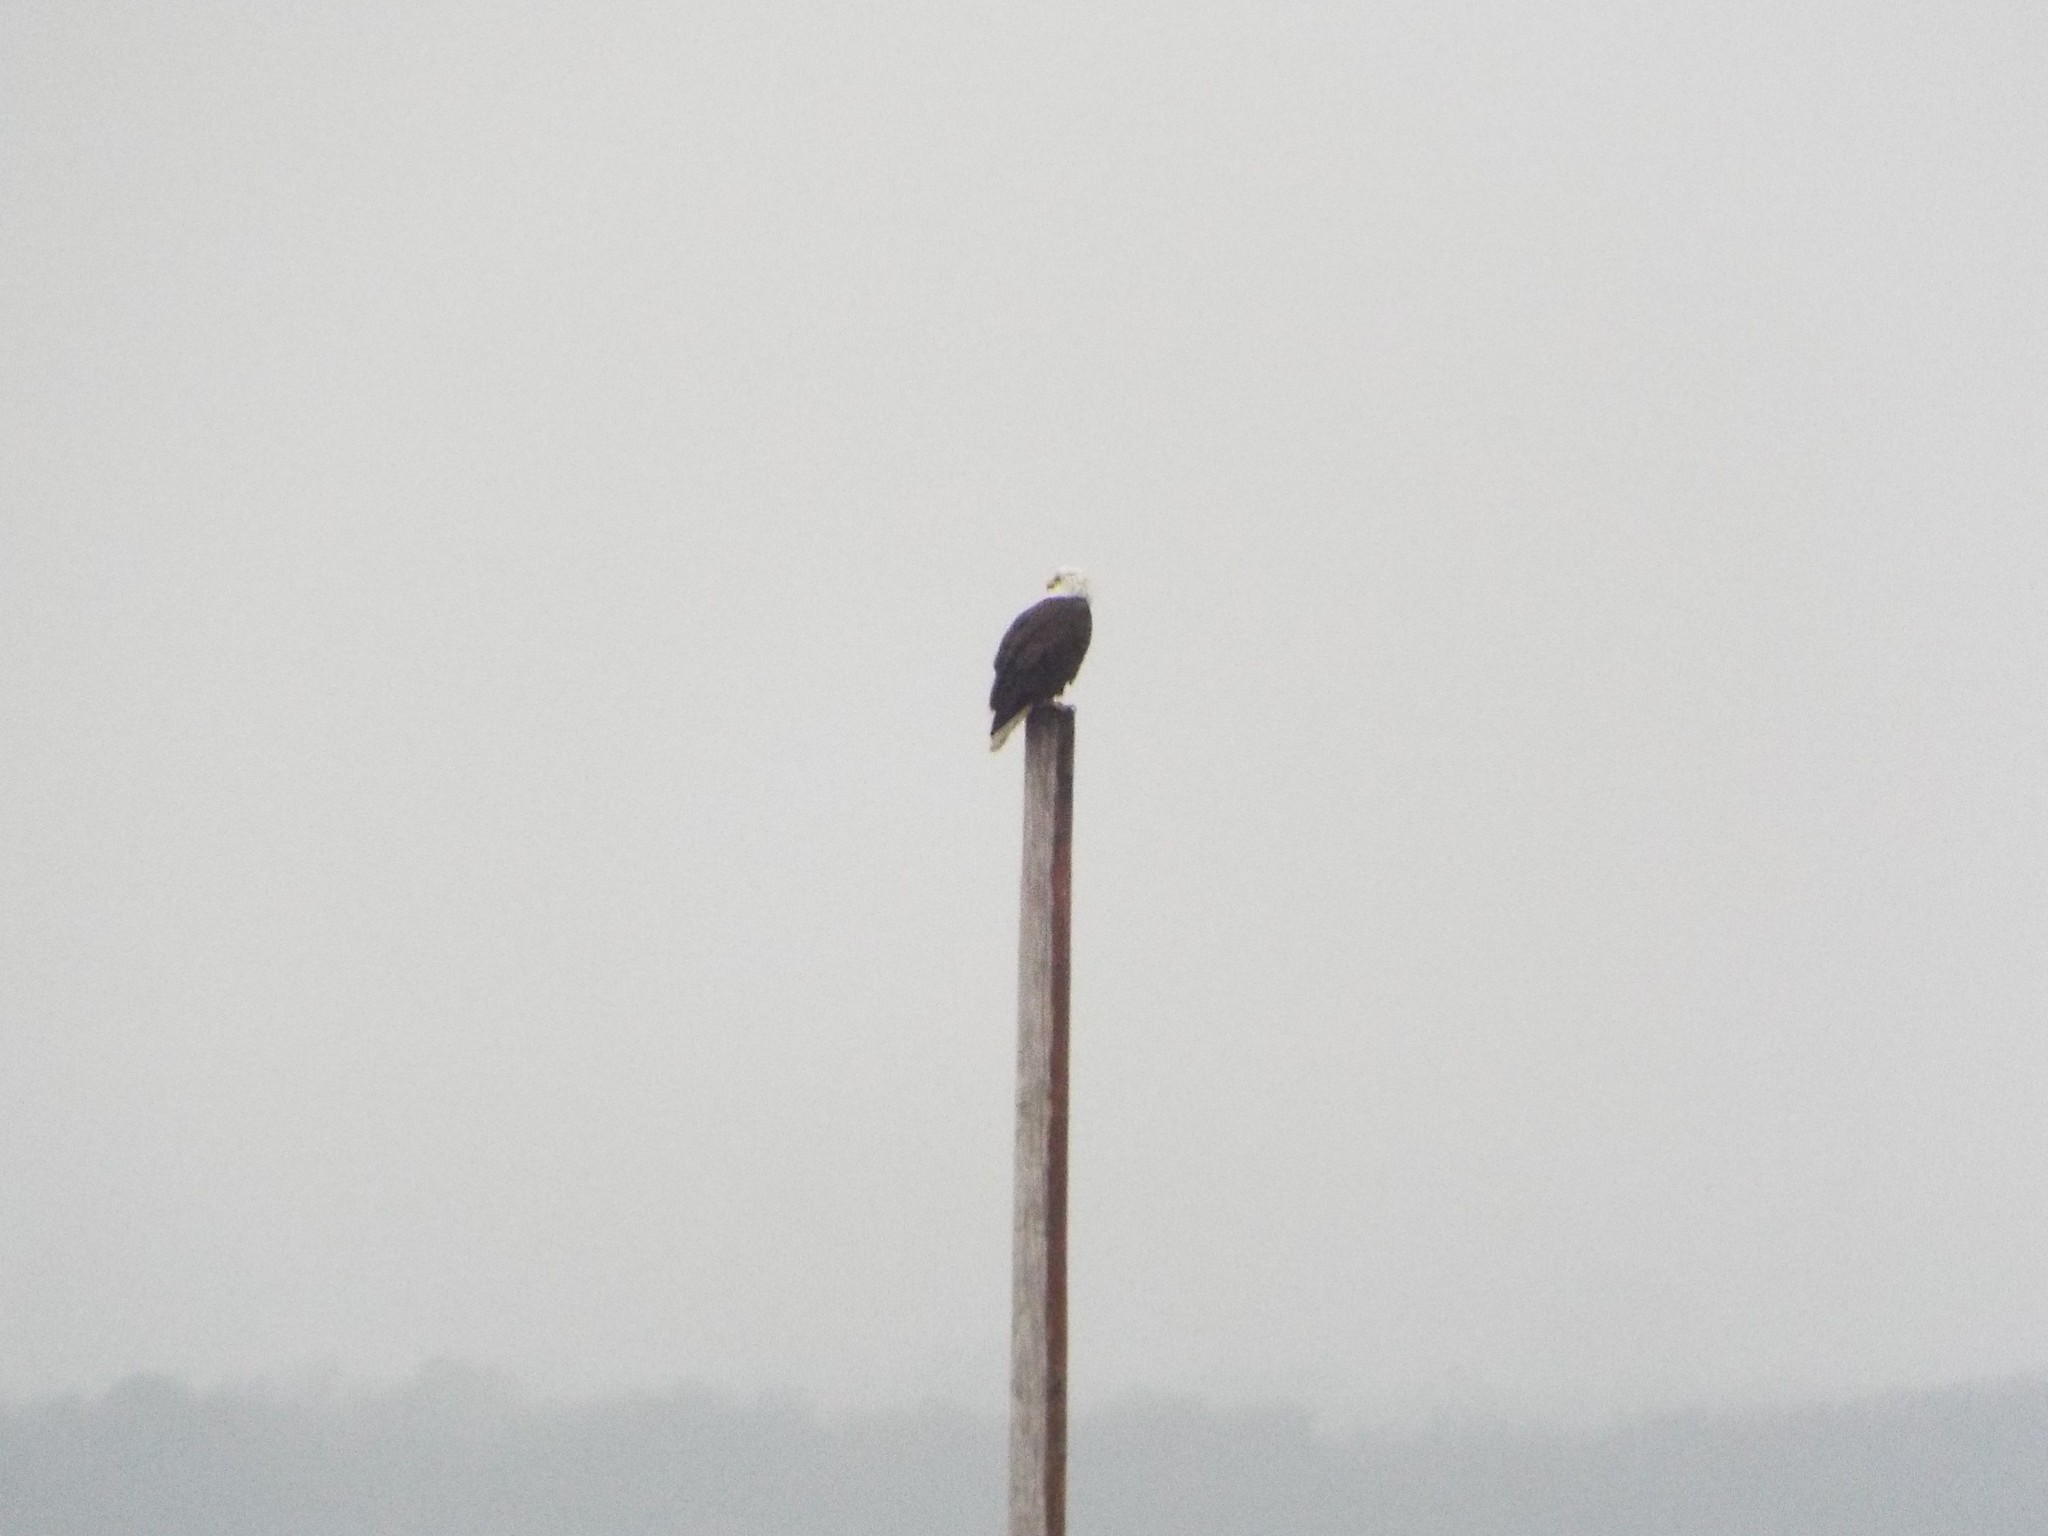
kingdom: Animalia
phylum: Chordata
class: Aves
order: Accipitriformes
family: Accipitridae
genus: Haliaeetus
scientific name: Haliaeetus leucocephalus
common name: Bald eagle
